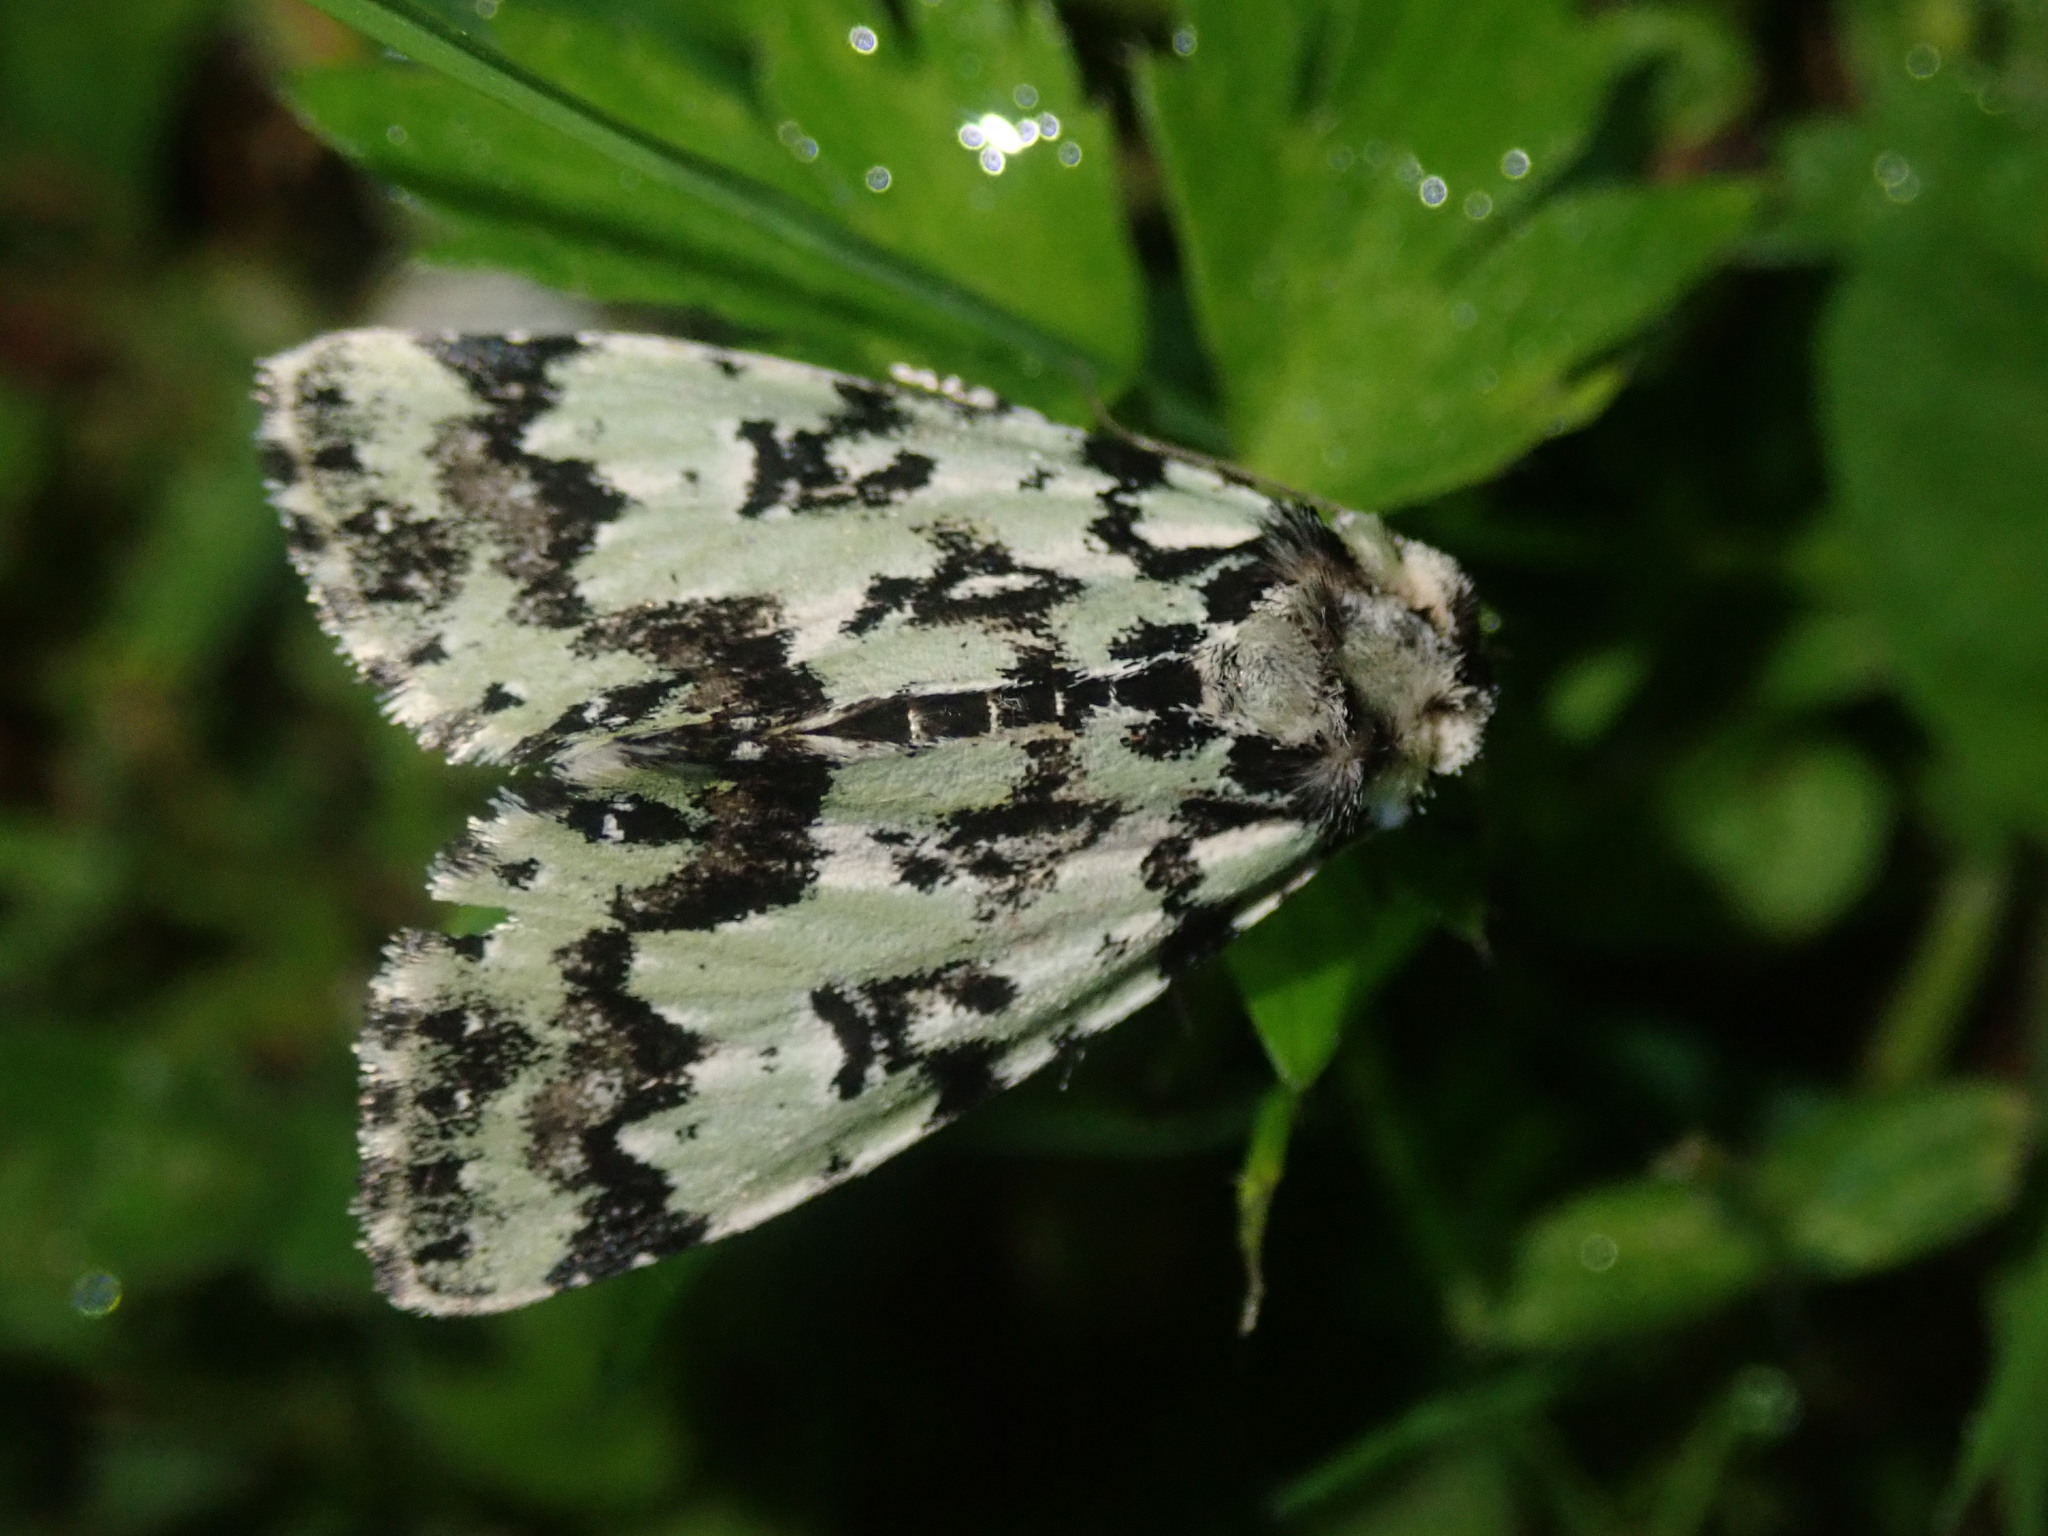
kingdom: Animalia
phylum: Arthropoda
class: Insecta
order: Lepidoptera
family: Noctuidae
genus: Moma
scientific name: Moma alpium
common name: Scarce merveille du jour
